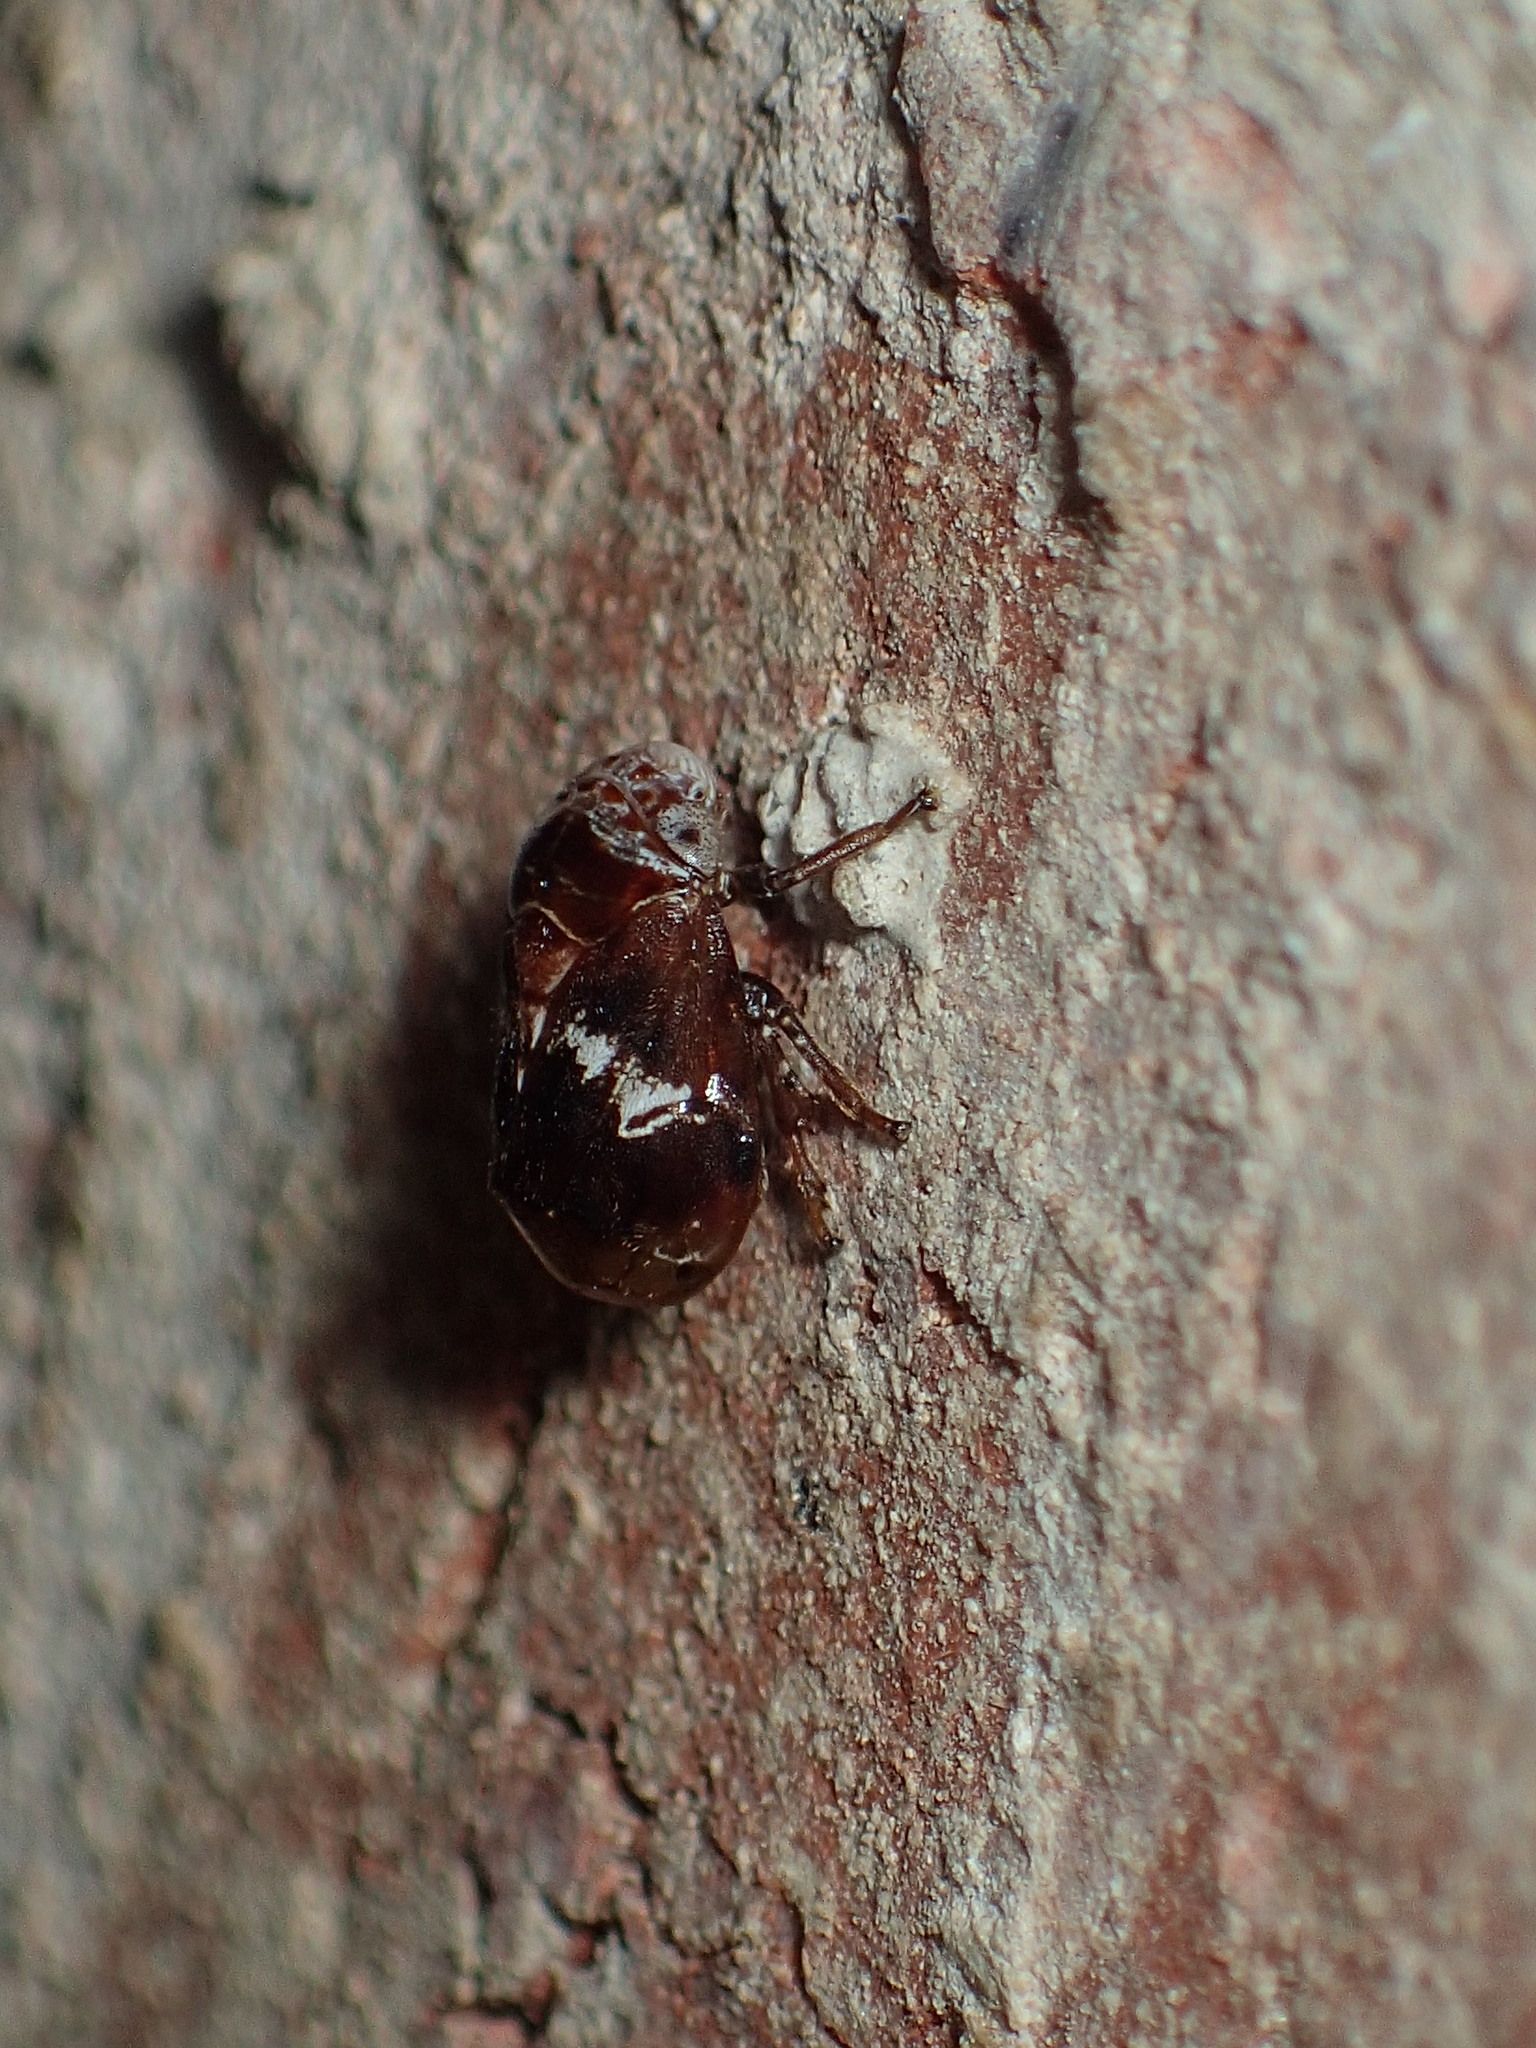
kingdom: Animalia
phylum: Arthropoda
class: Insecta
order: Hemiptera
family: Clastopteridae
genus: Clastoptera
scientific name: Clastoptera
